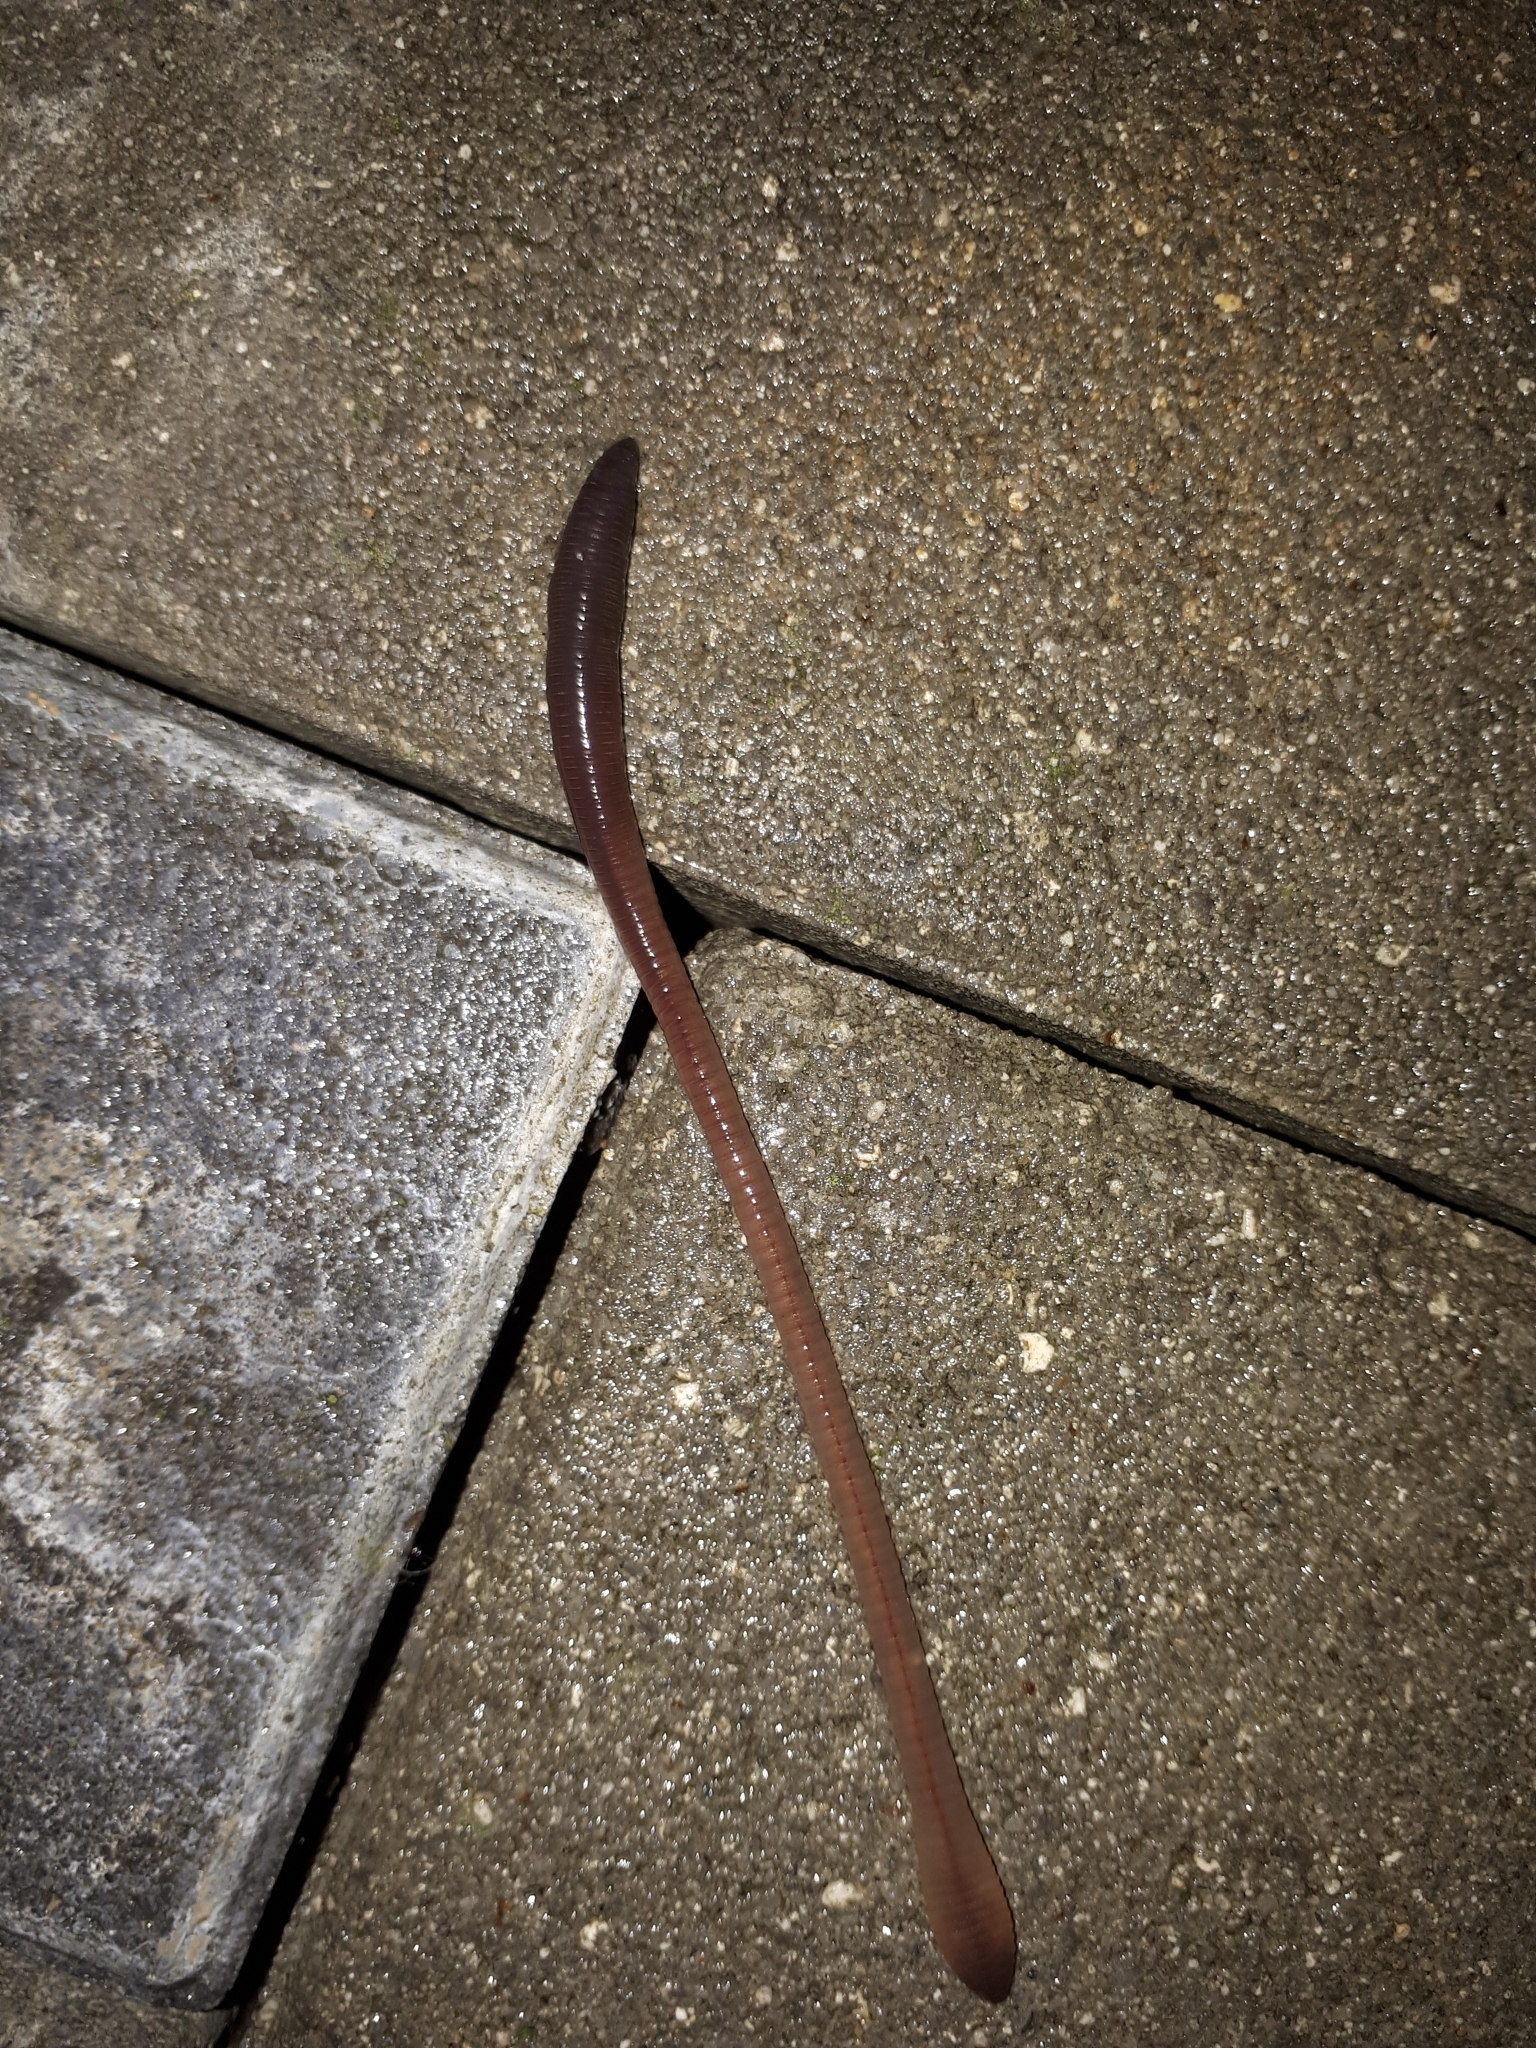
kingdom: Animalia
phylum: Annelida
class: Clitellata
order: Crassiclitellata
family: Lumbricidae
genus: Lumbricus
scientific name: Lumbricus terrestris
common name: Common earthworm
